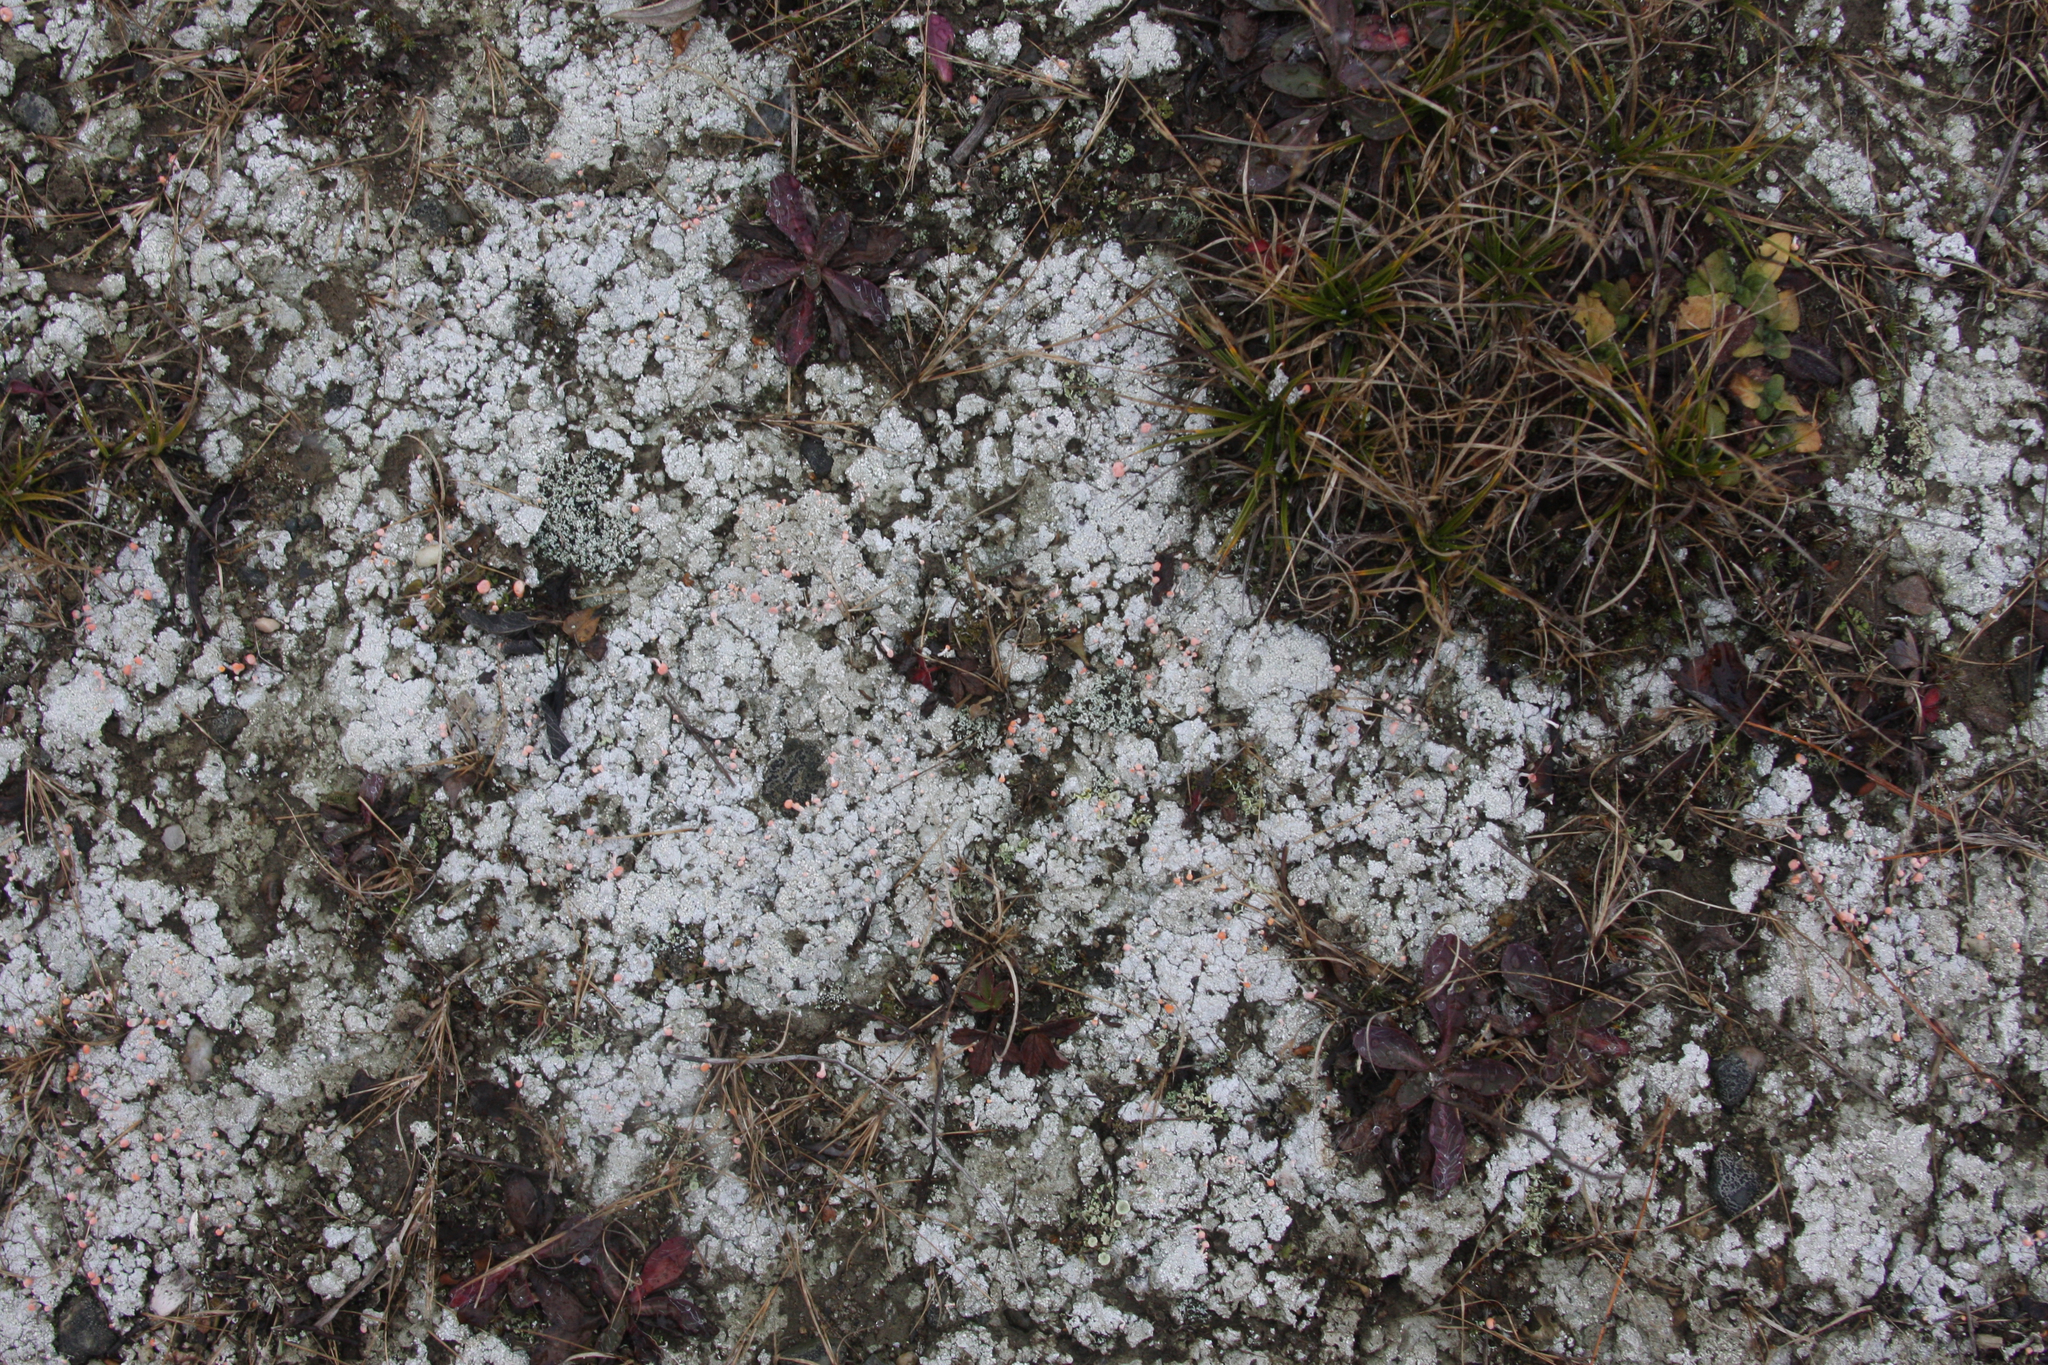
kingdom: Fungi
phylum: Ascomycota
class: Lecanoromycetes
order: Pertusariales
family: Icmadophilaceae
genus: Dibaeis
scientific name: Dibaeis baeomyces
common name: Pink earth lichen
